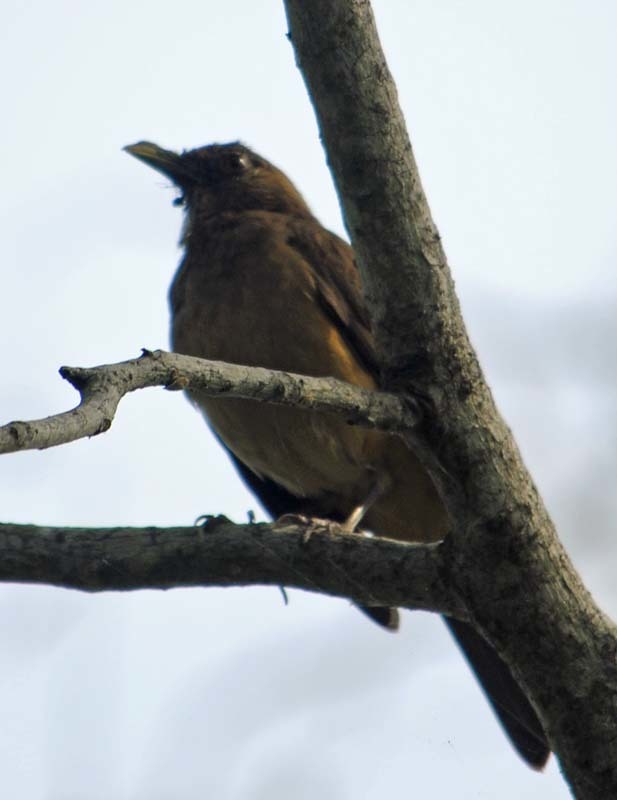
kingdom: Animalia
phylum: Chordata
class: Aves
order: Passeriformes
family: Turdidae
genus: Turdus
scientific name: Turdus grayi
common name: Clay-colored thrush
